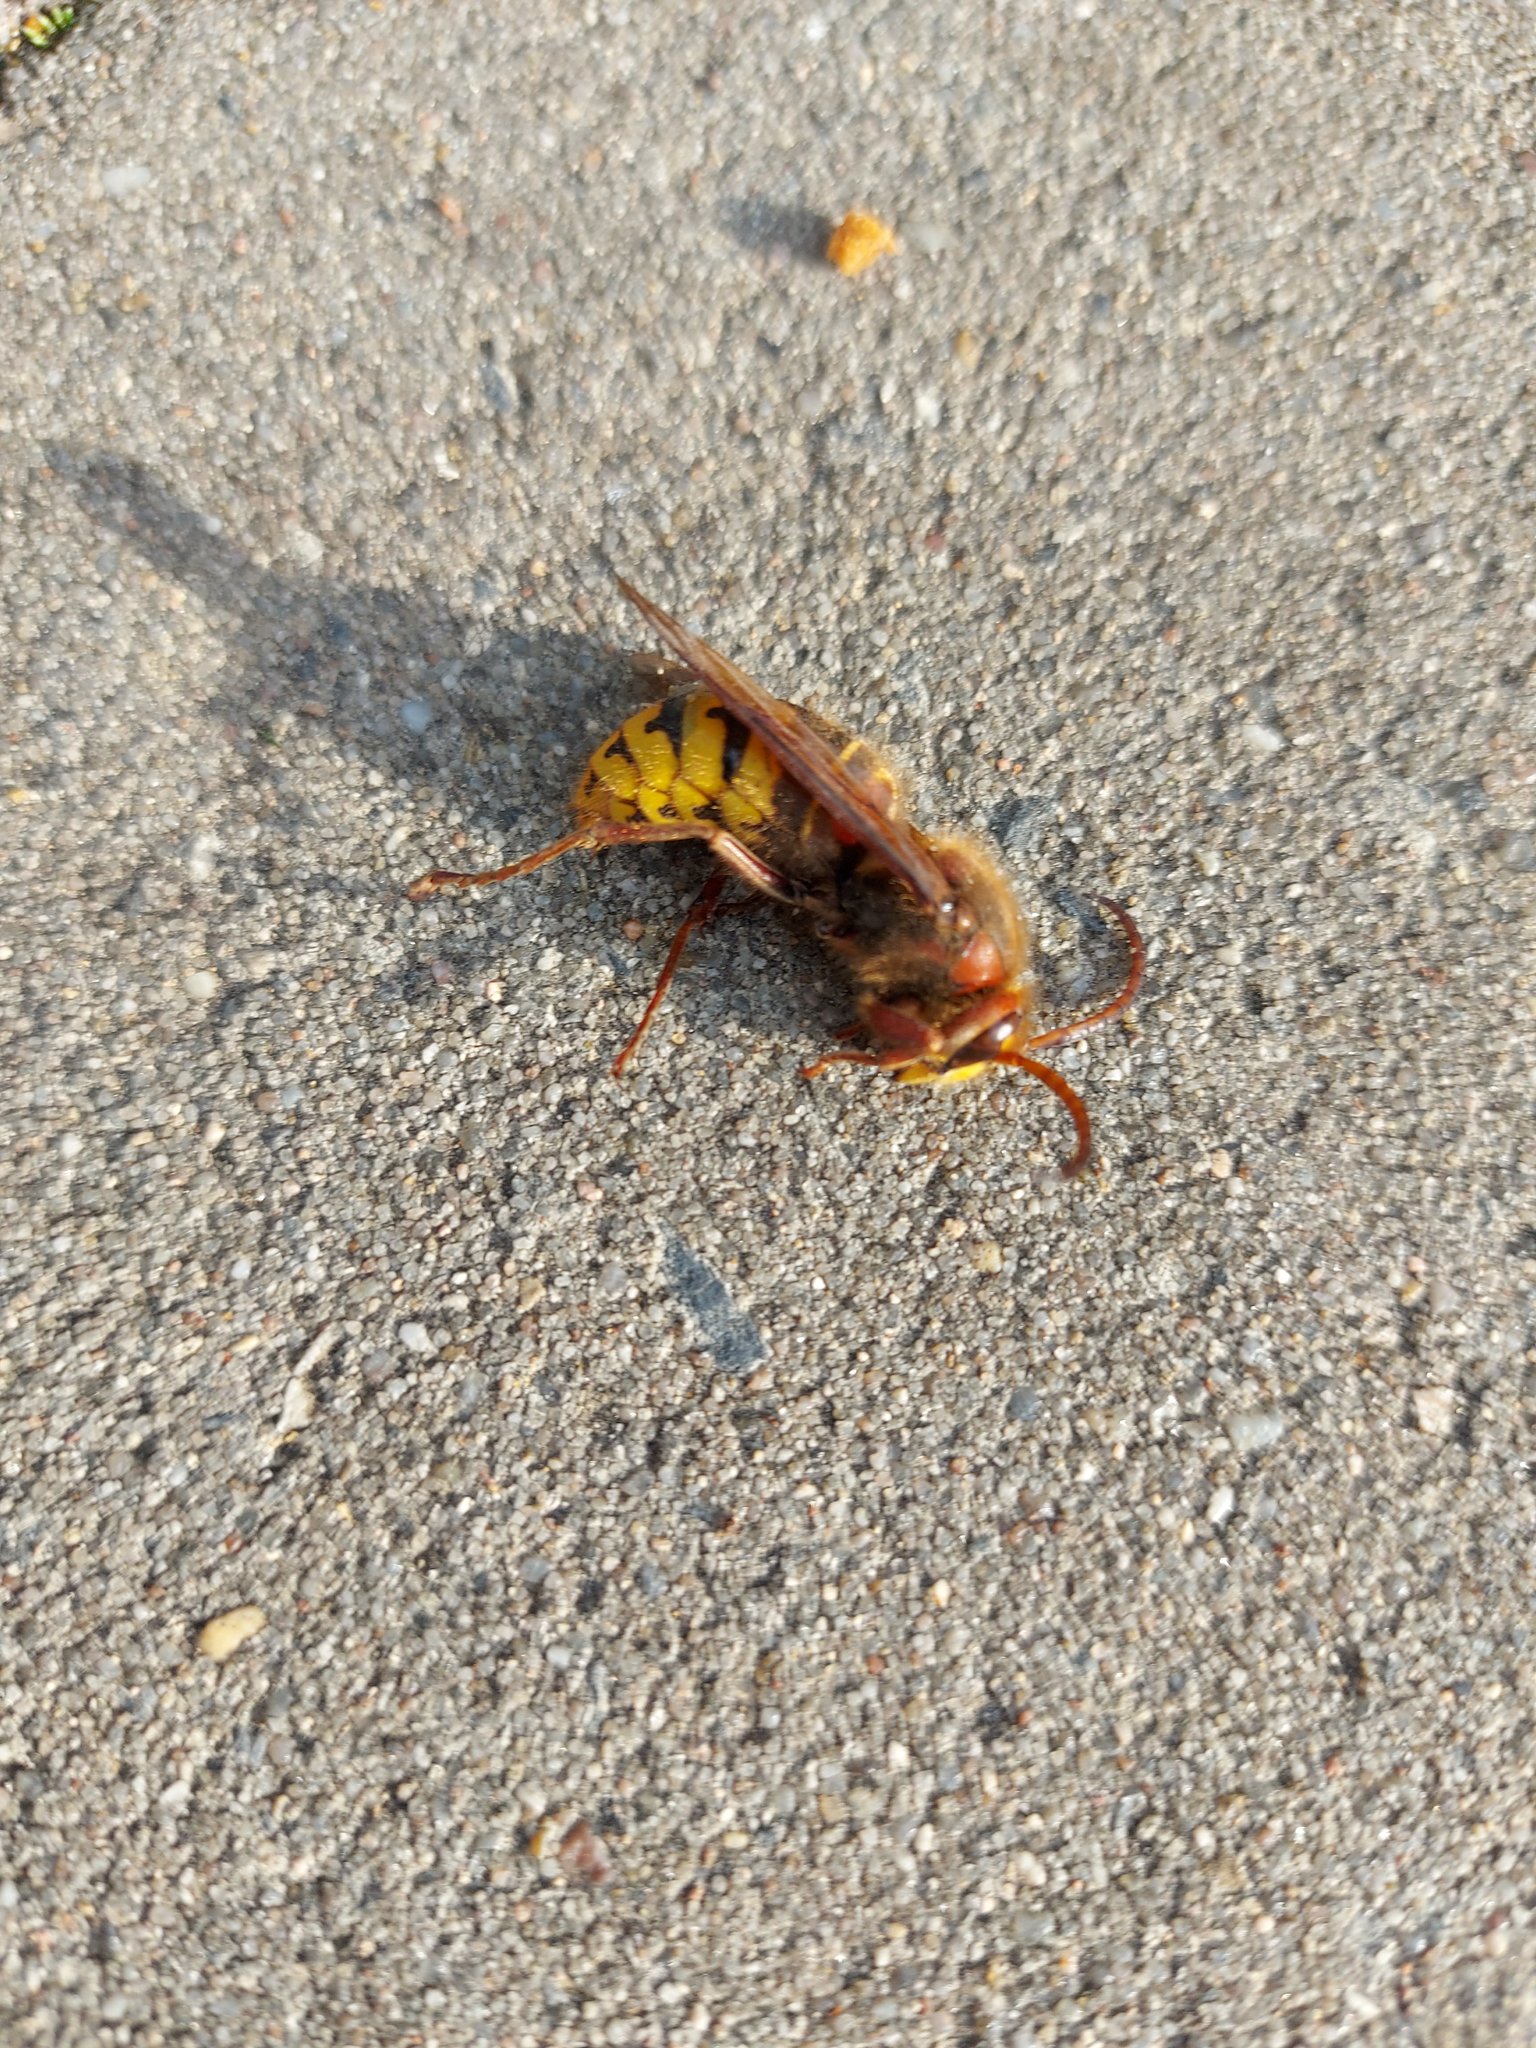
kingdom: Animalia
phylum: Arthropoda
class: Insecta
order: Hymenoptera
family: Vespidae
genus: Vespa
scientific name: Vespa crabro
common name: Hornet
